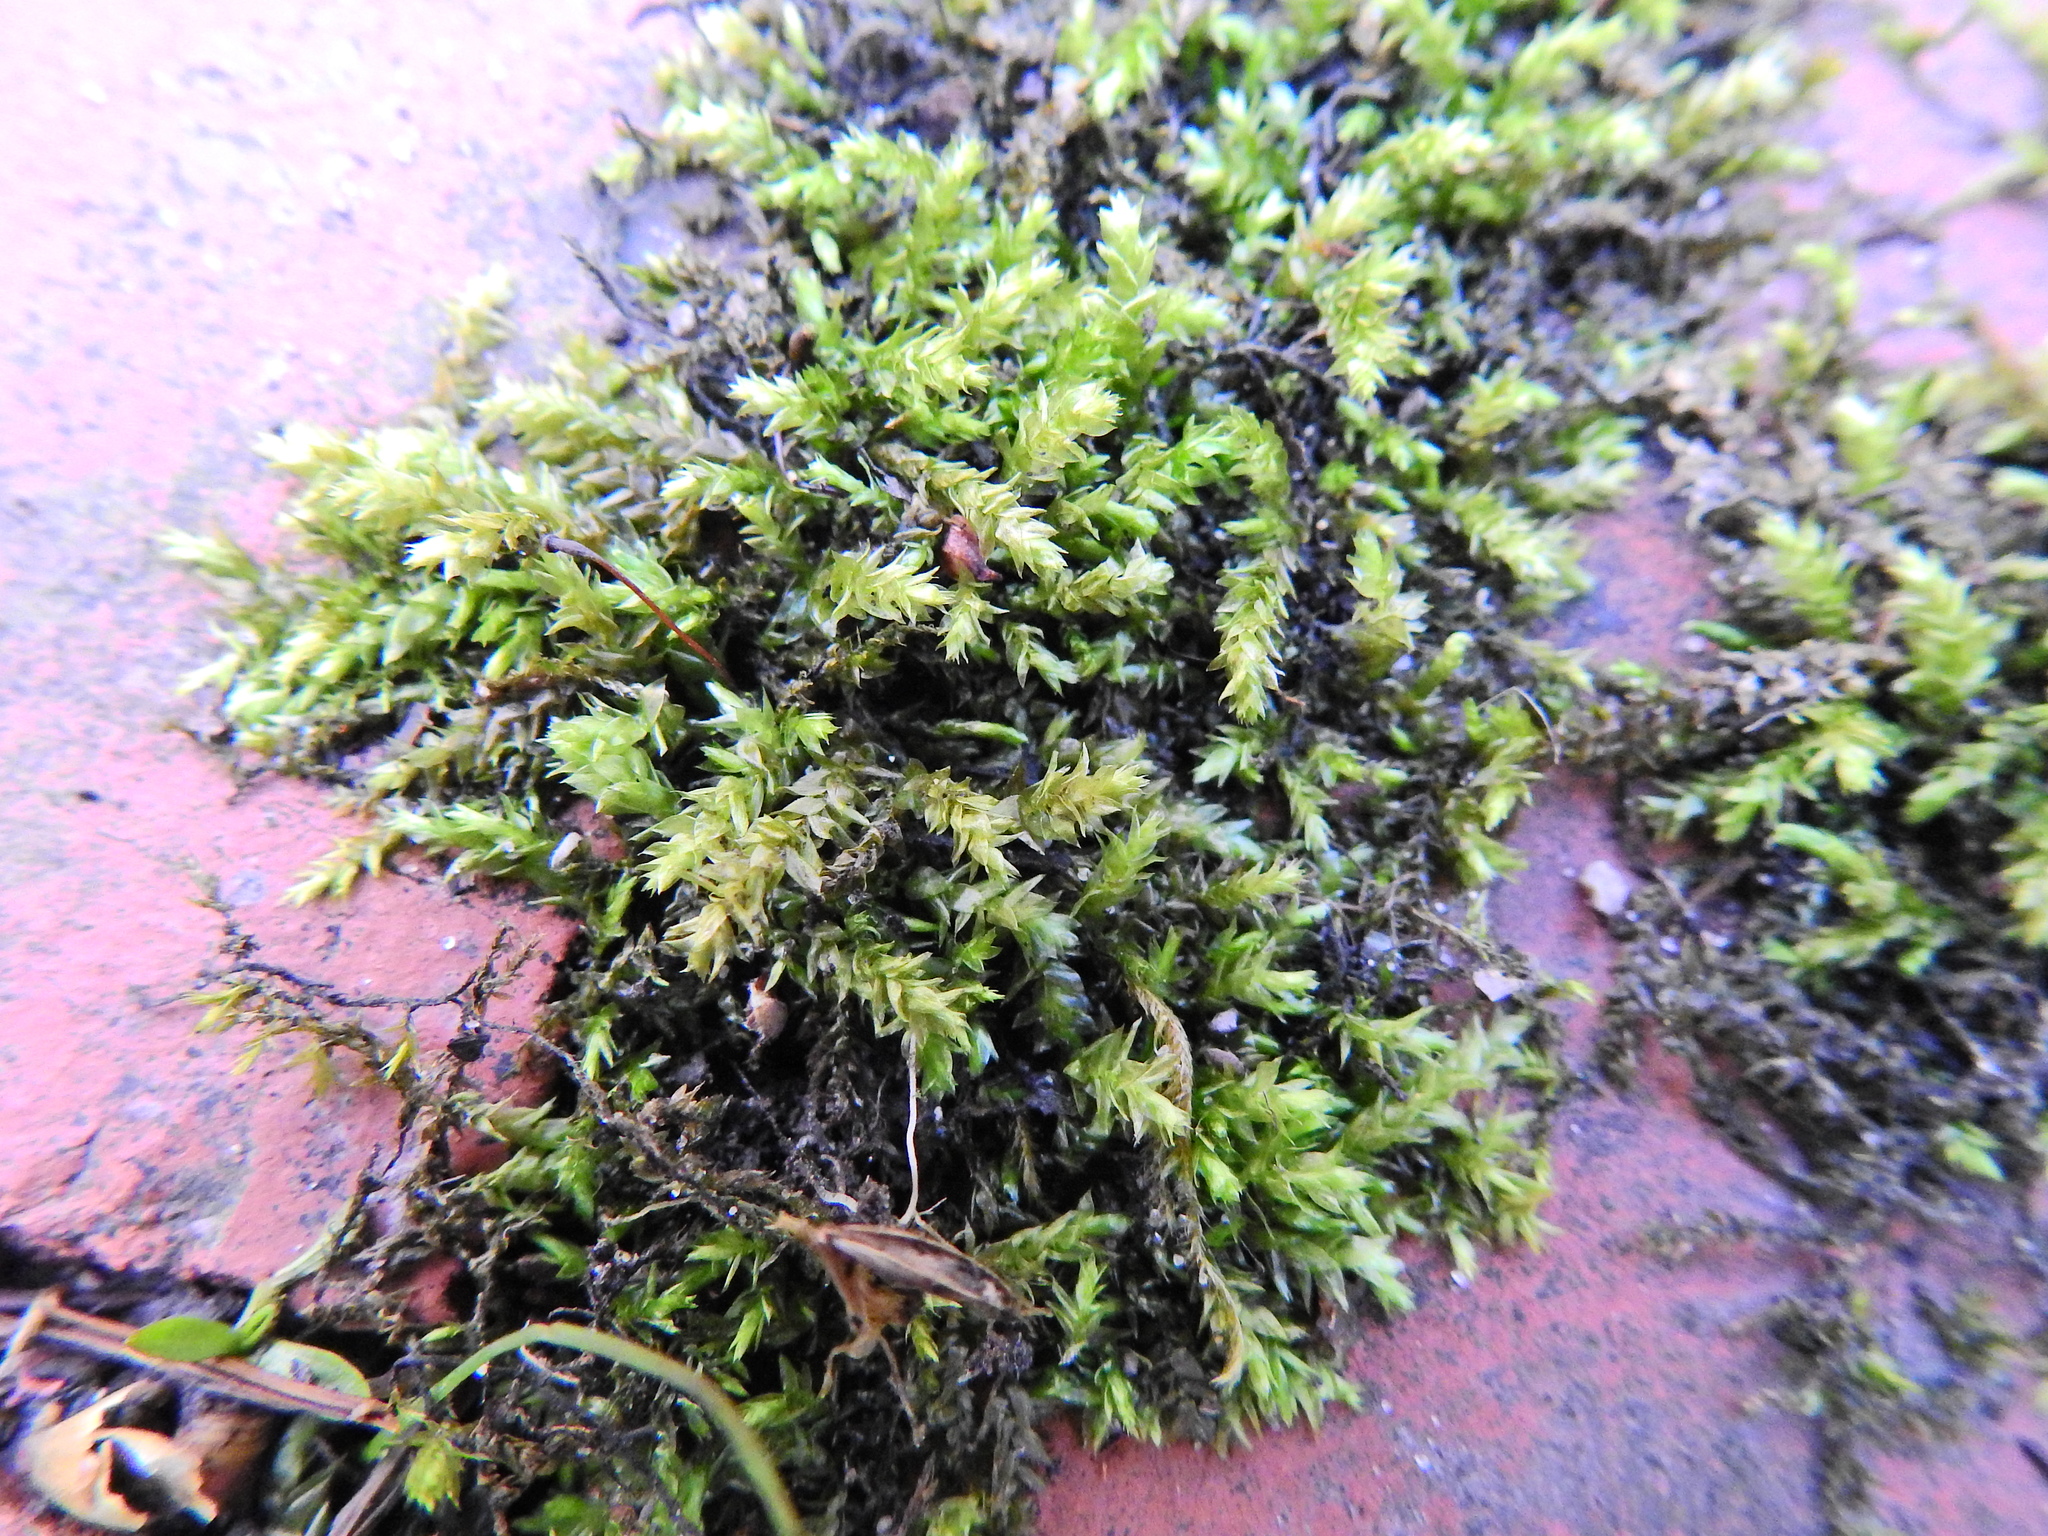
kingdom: Plantae
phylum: Bryophyta
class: Bryopsida
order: Hypnales
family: Brachytheciaceae
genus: Brachythecium
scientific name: Brachythecium rivulare
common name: River ragged moss
